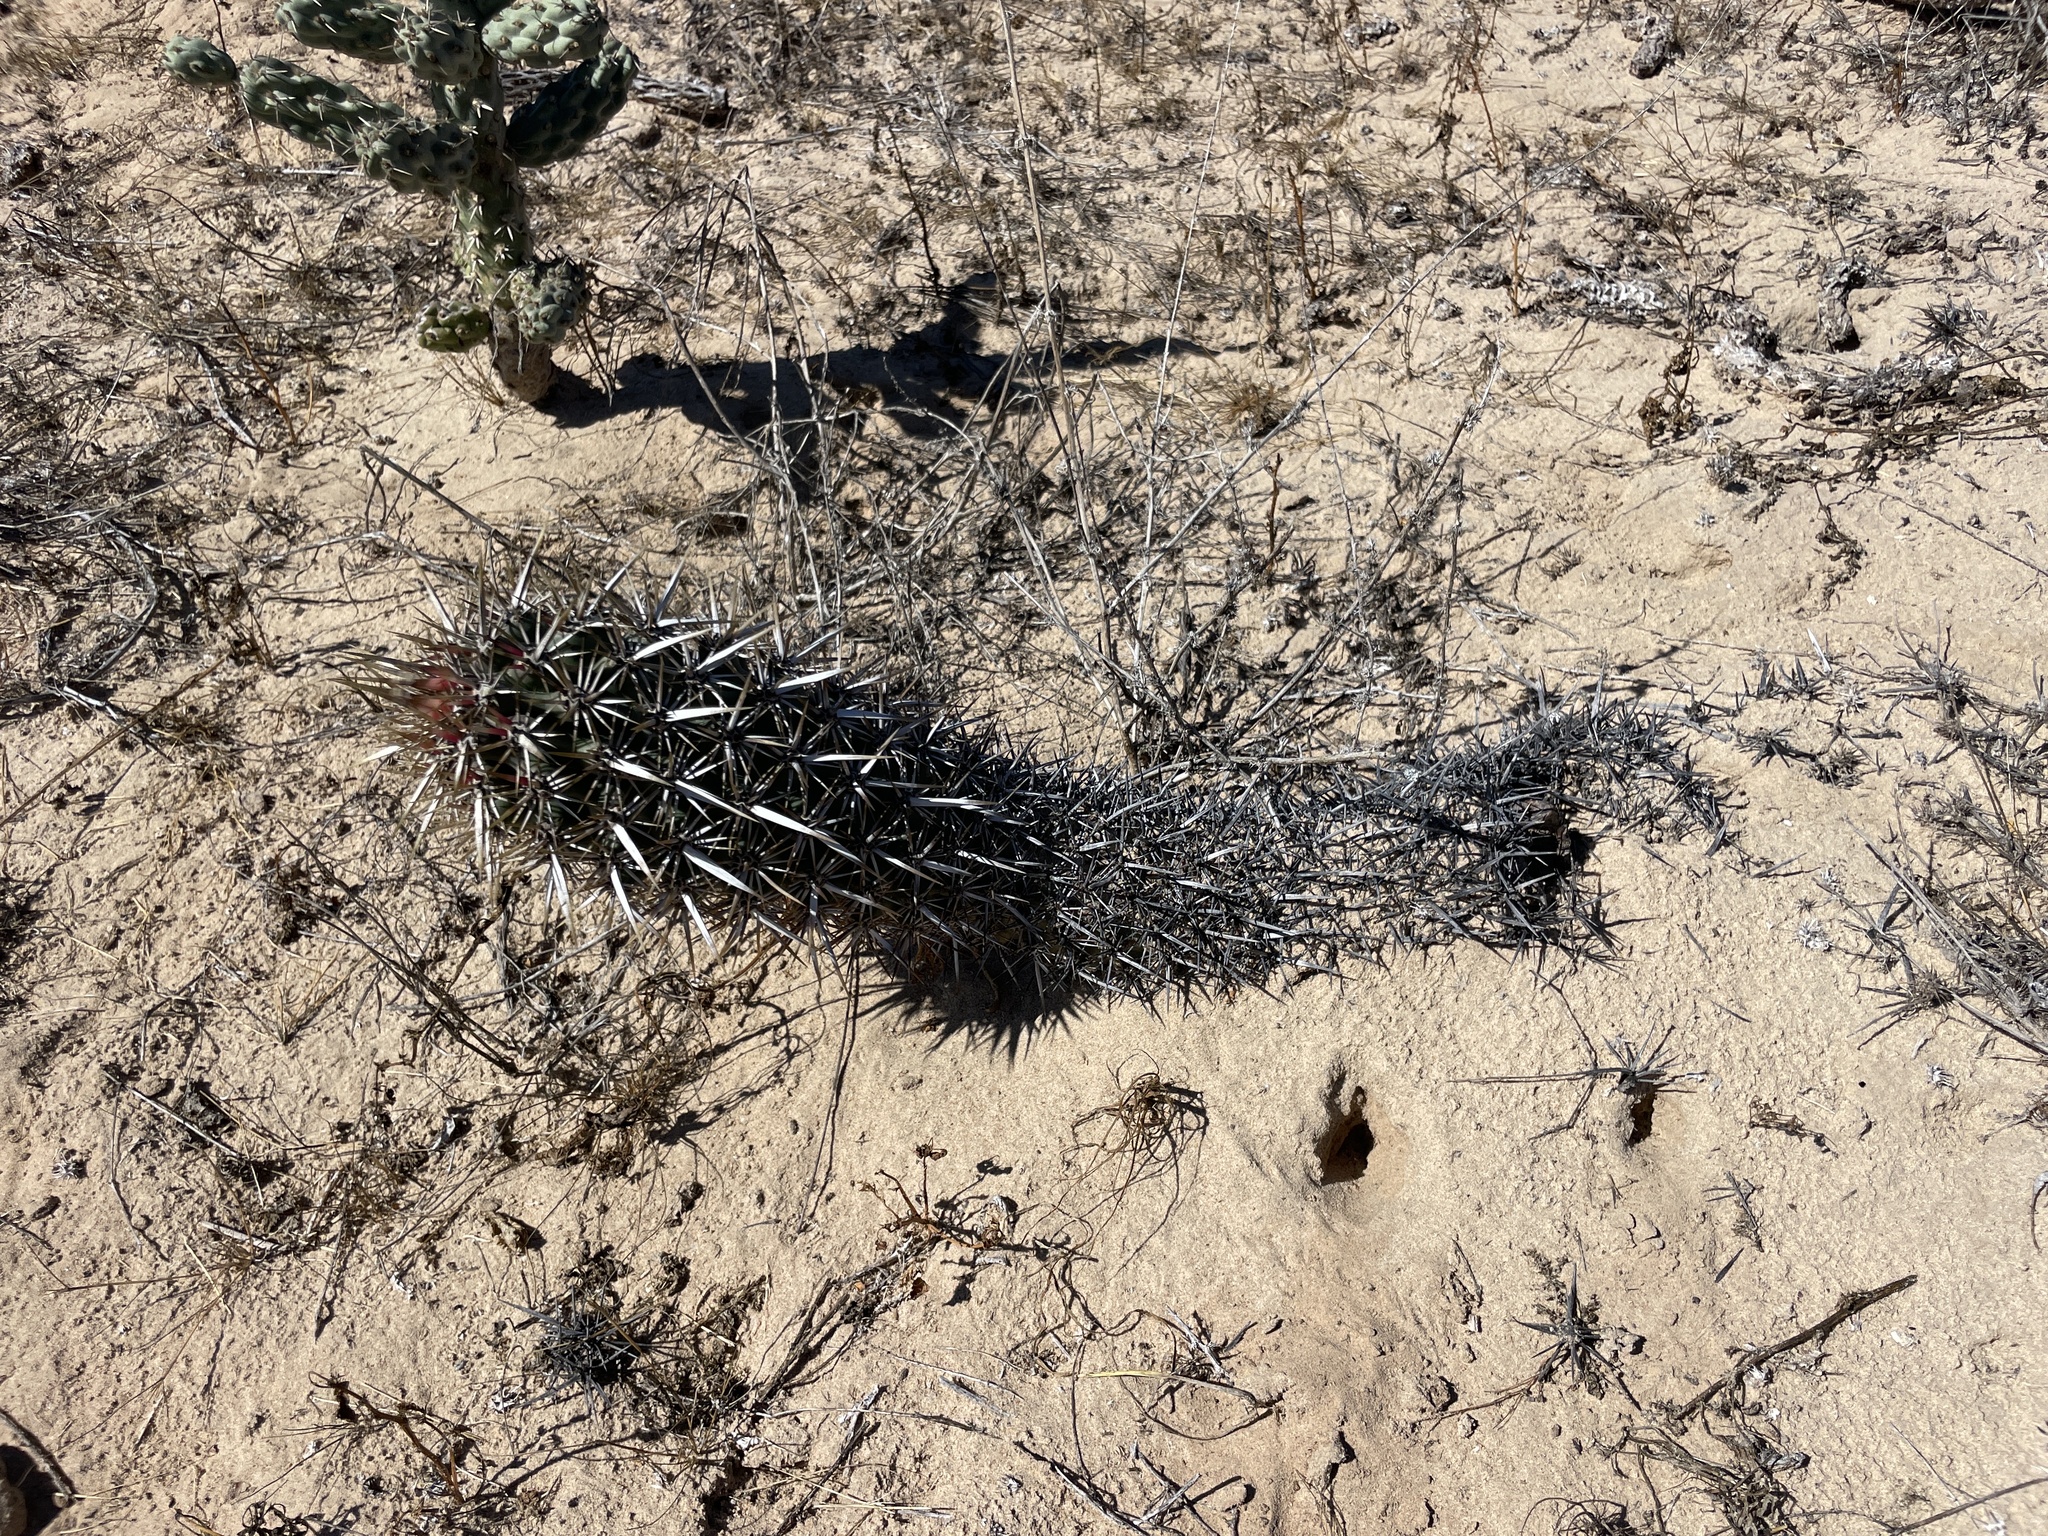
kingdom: Plantae
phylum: Tracheophyta
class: Magnoliopsida
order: Caryophyllales
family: Cactaceae
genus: Stenocereus
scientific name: Stenocereus eruca
